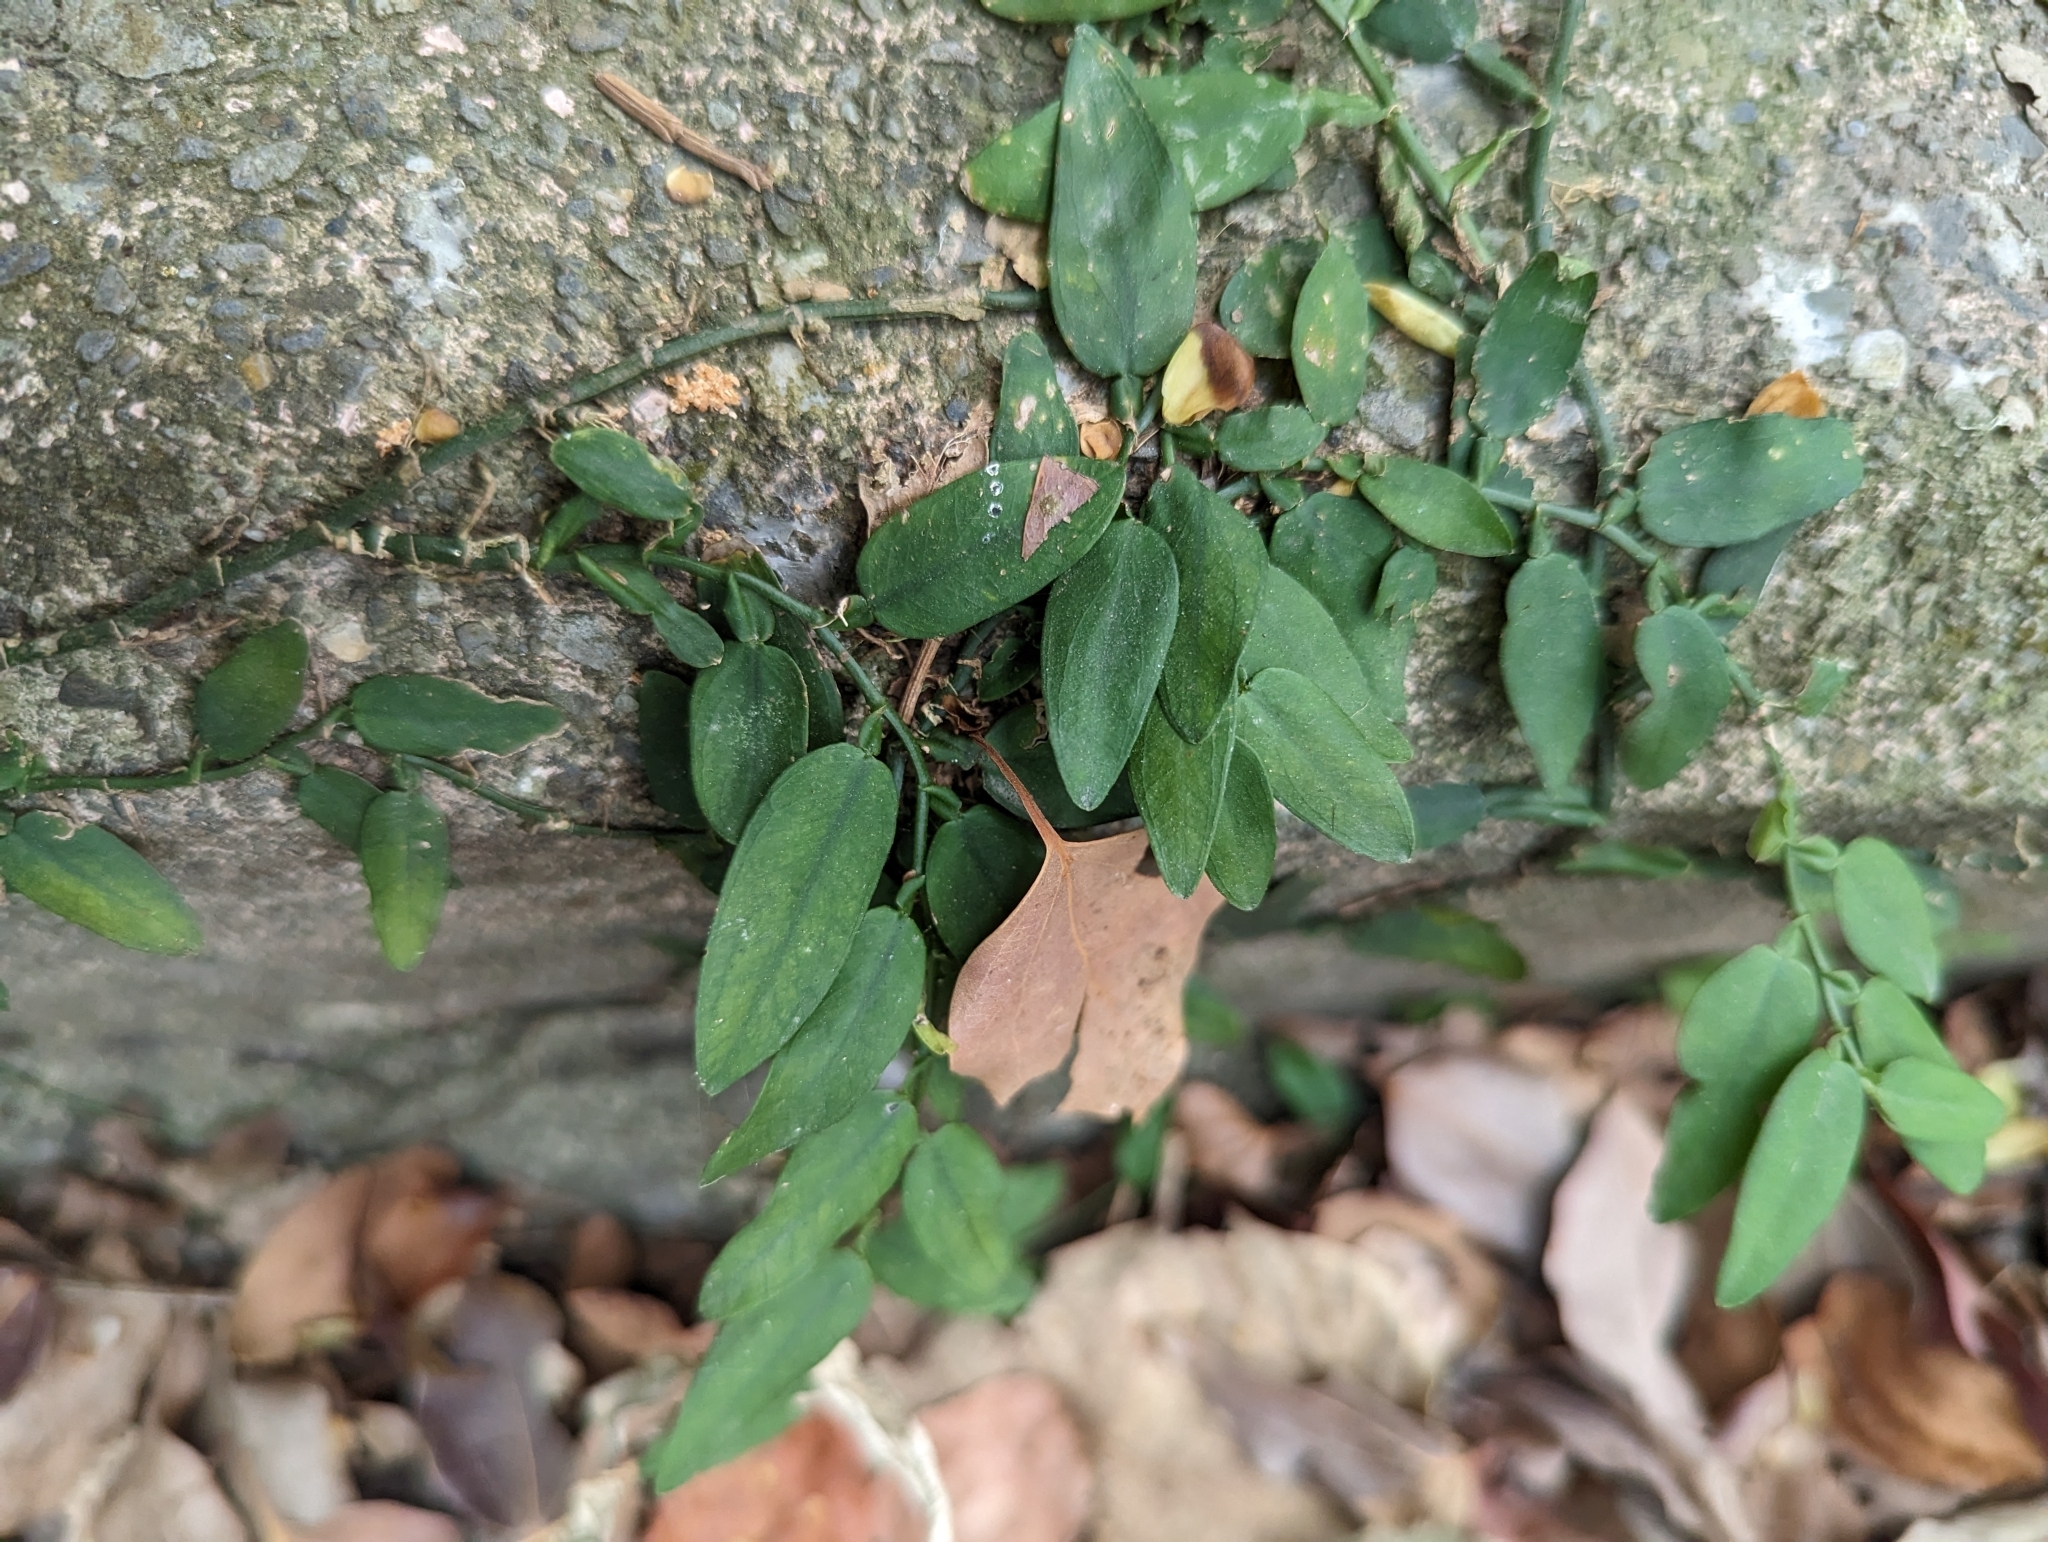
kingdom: Plantae
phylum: Tracheophyta
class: Liliopsida
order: Alismatales
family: Araceae
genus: Pothos
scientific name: Pothos chinensis
